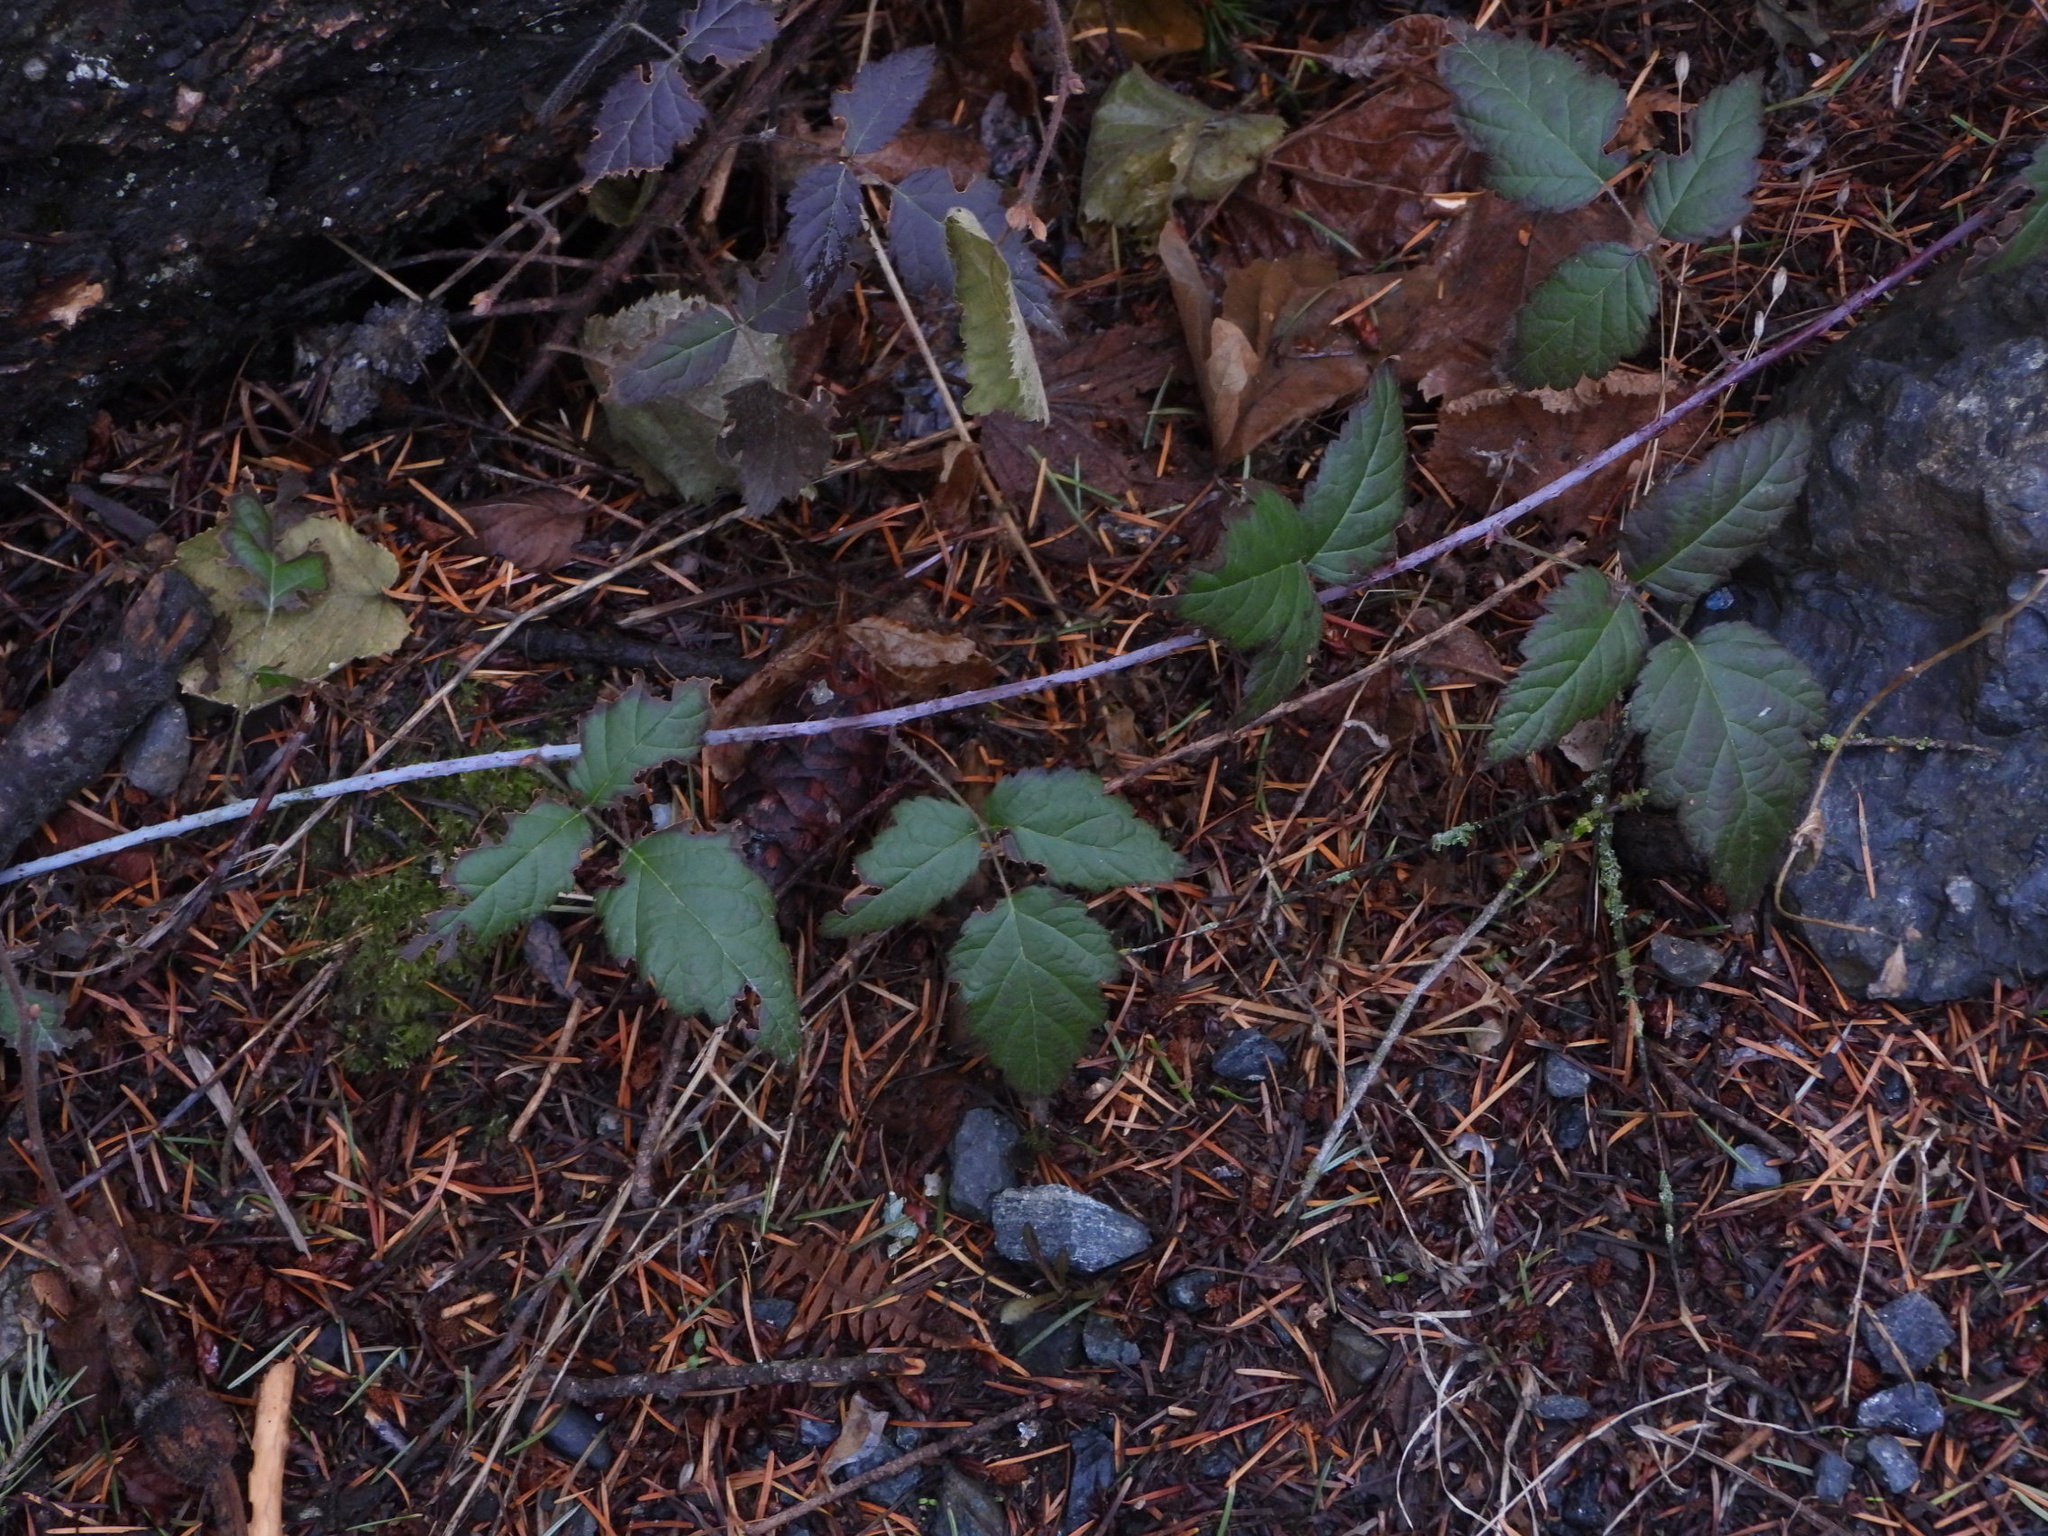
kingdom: Plantae
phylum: Tracheophyta
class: Magnoliopsida
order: Rosales
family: Rosaceae
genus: Rubus
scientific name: Rubus ursinus
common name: Pacific blackberry
